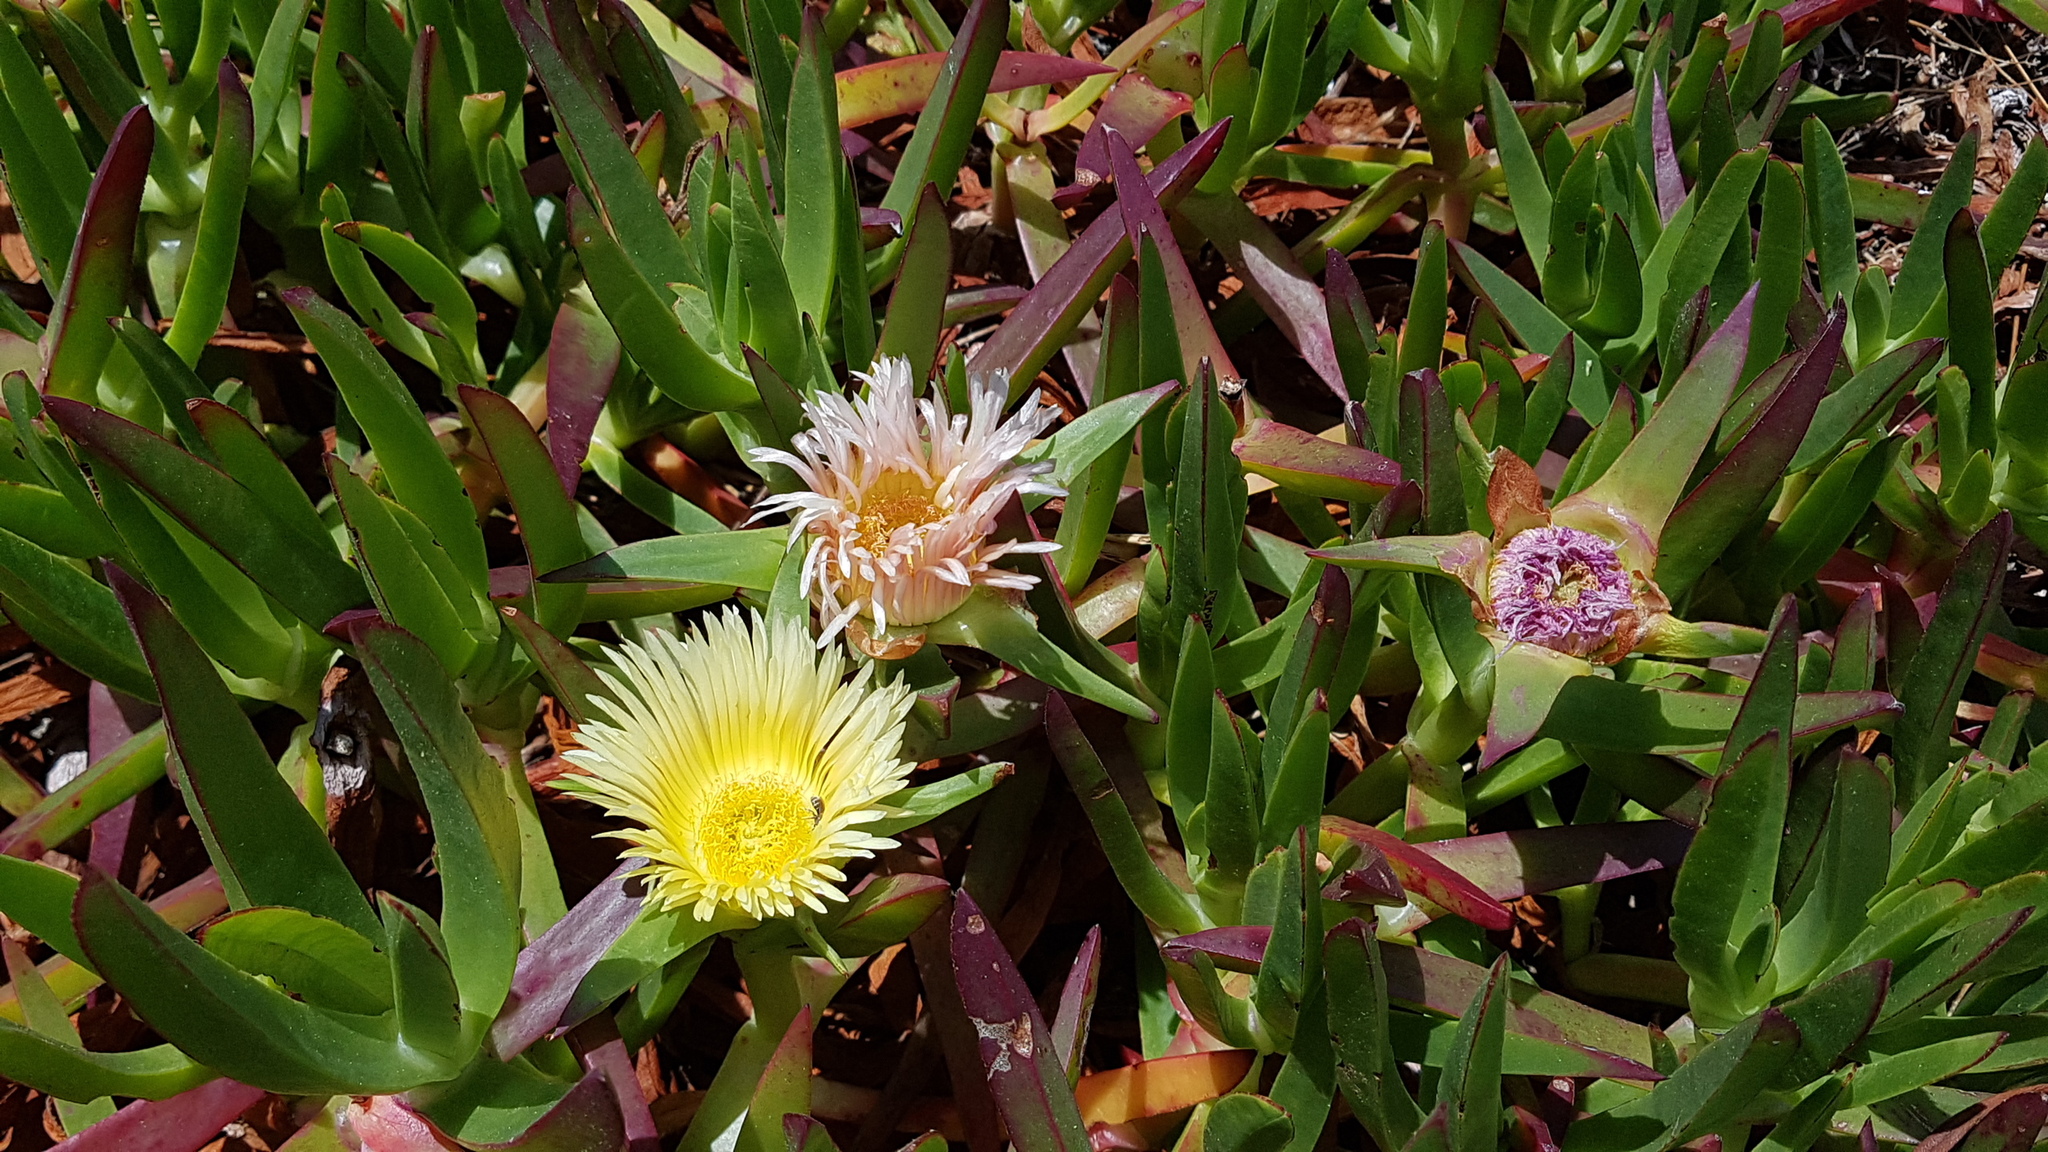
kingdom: Plantae
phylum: Tracheophyta
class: Magnoliopsida
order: Caryophyllales
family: Aizoaceae
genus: Carpobrotus
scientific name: Carpobrotus edulis
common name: Hottentot-fig
